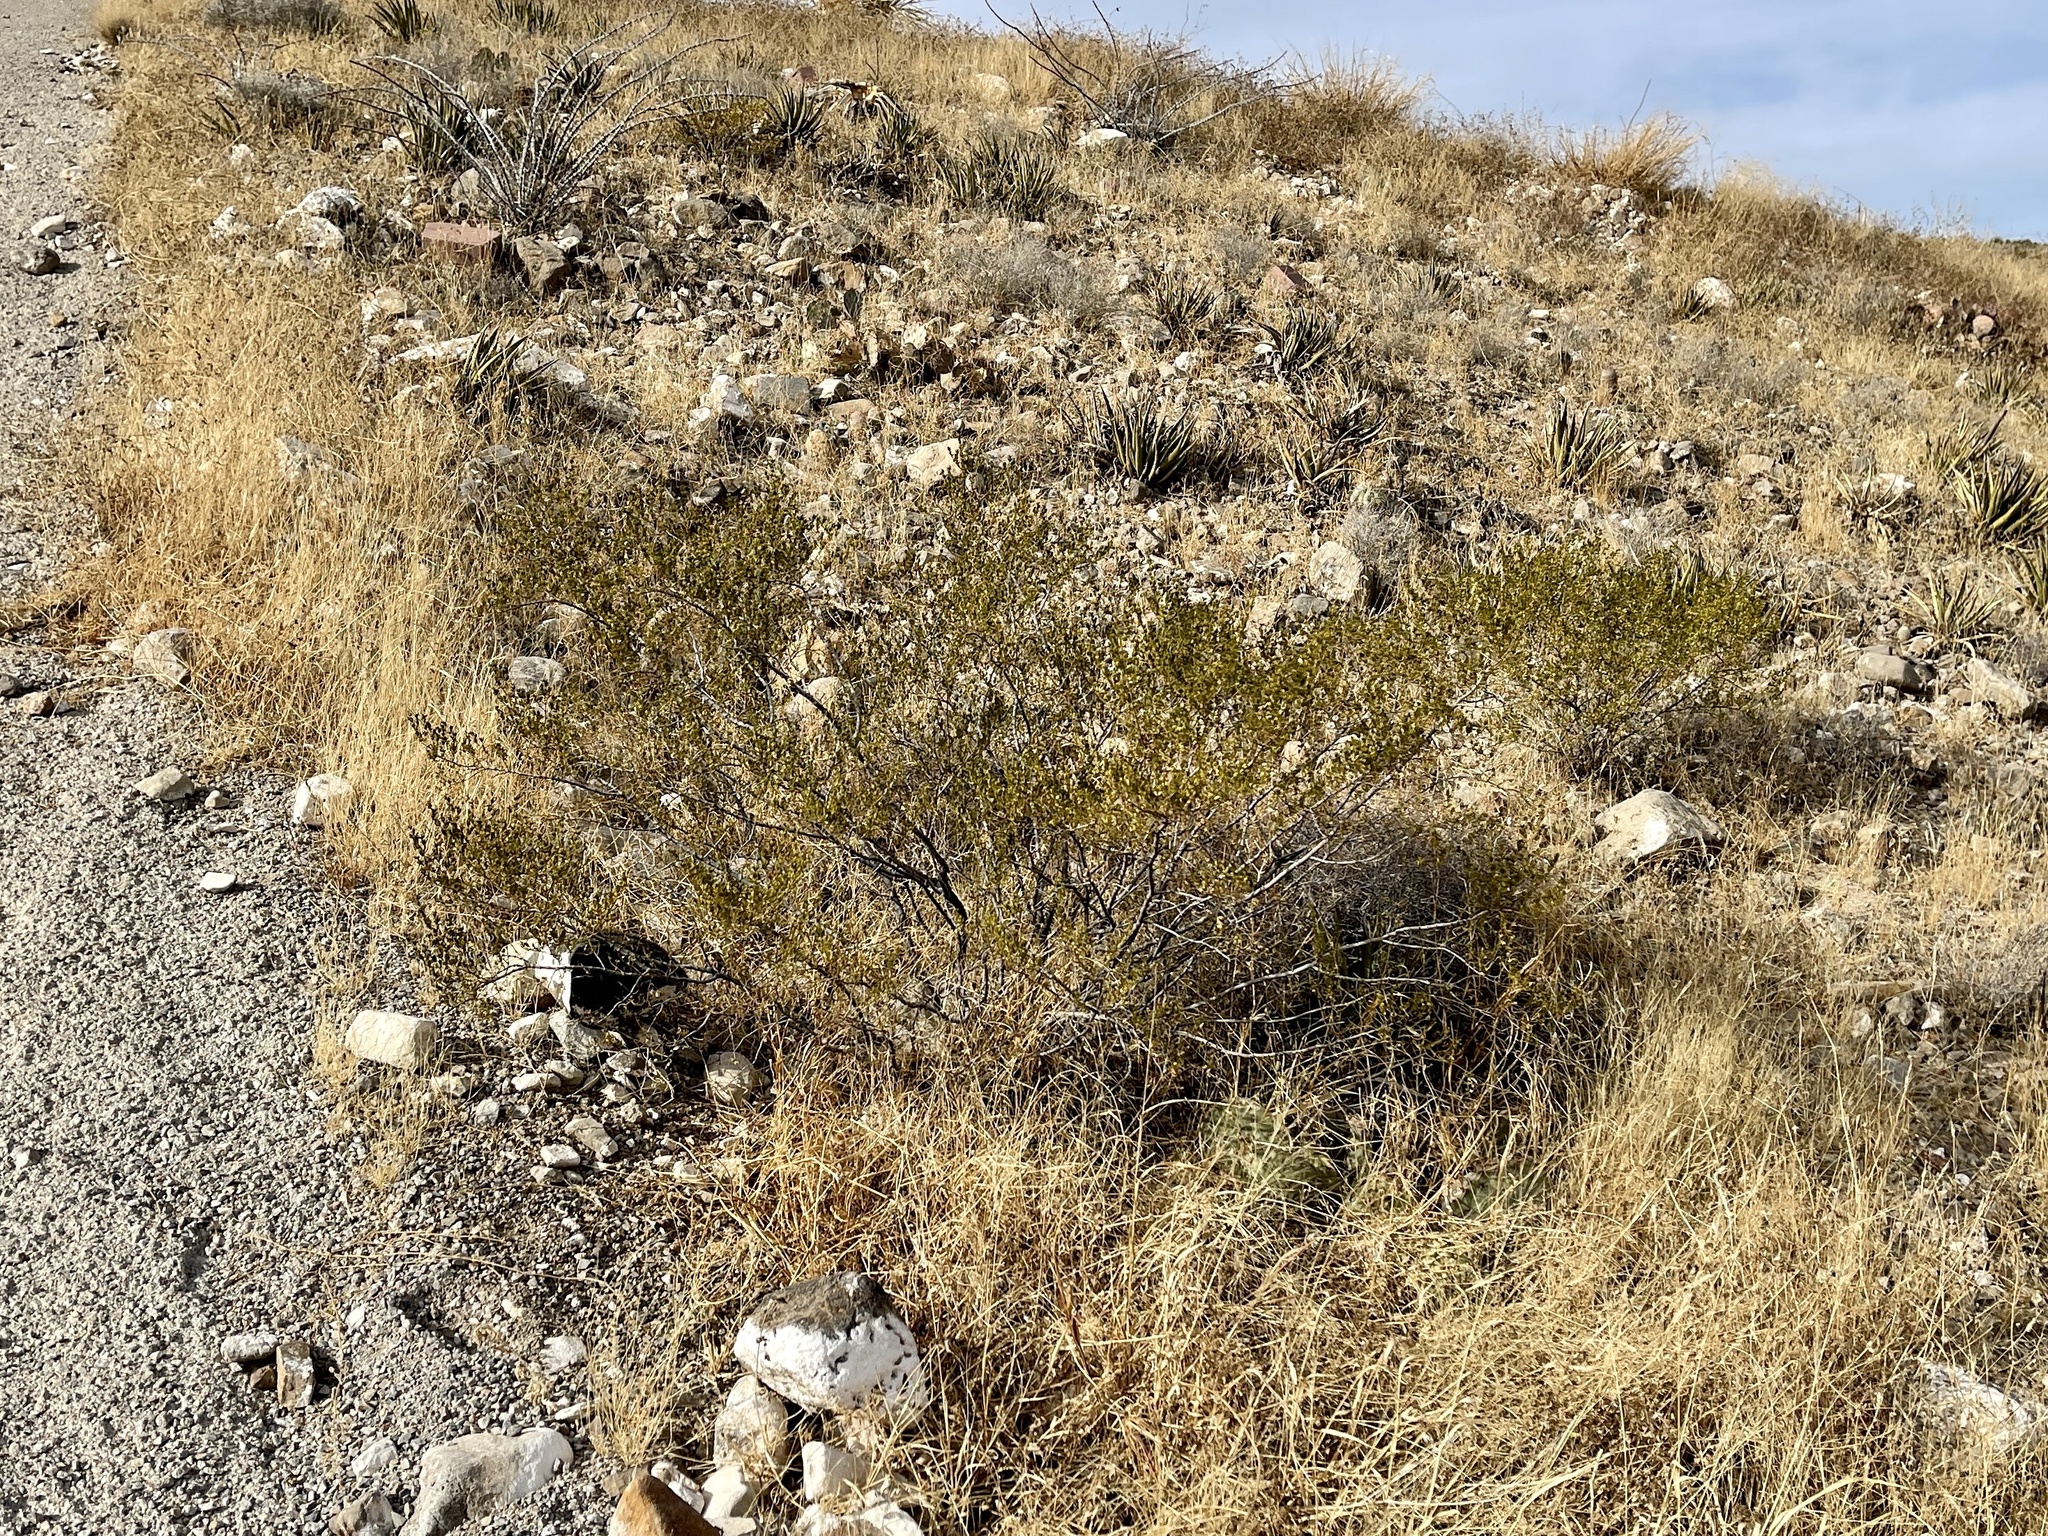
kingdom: Plantae
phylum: Tracheophyta
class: Magnoliopsida
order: Zygophyllales
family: Zygophyllaceae
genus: Larrea
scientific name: Larrea tridentata
